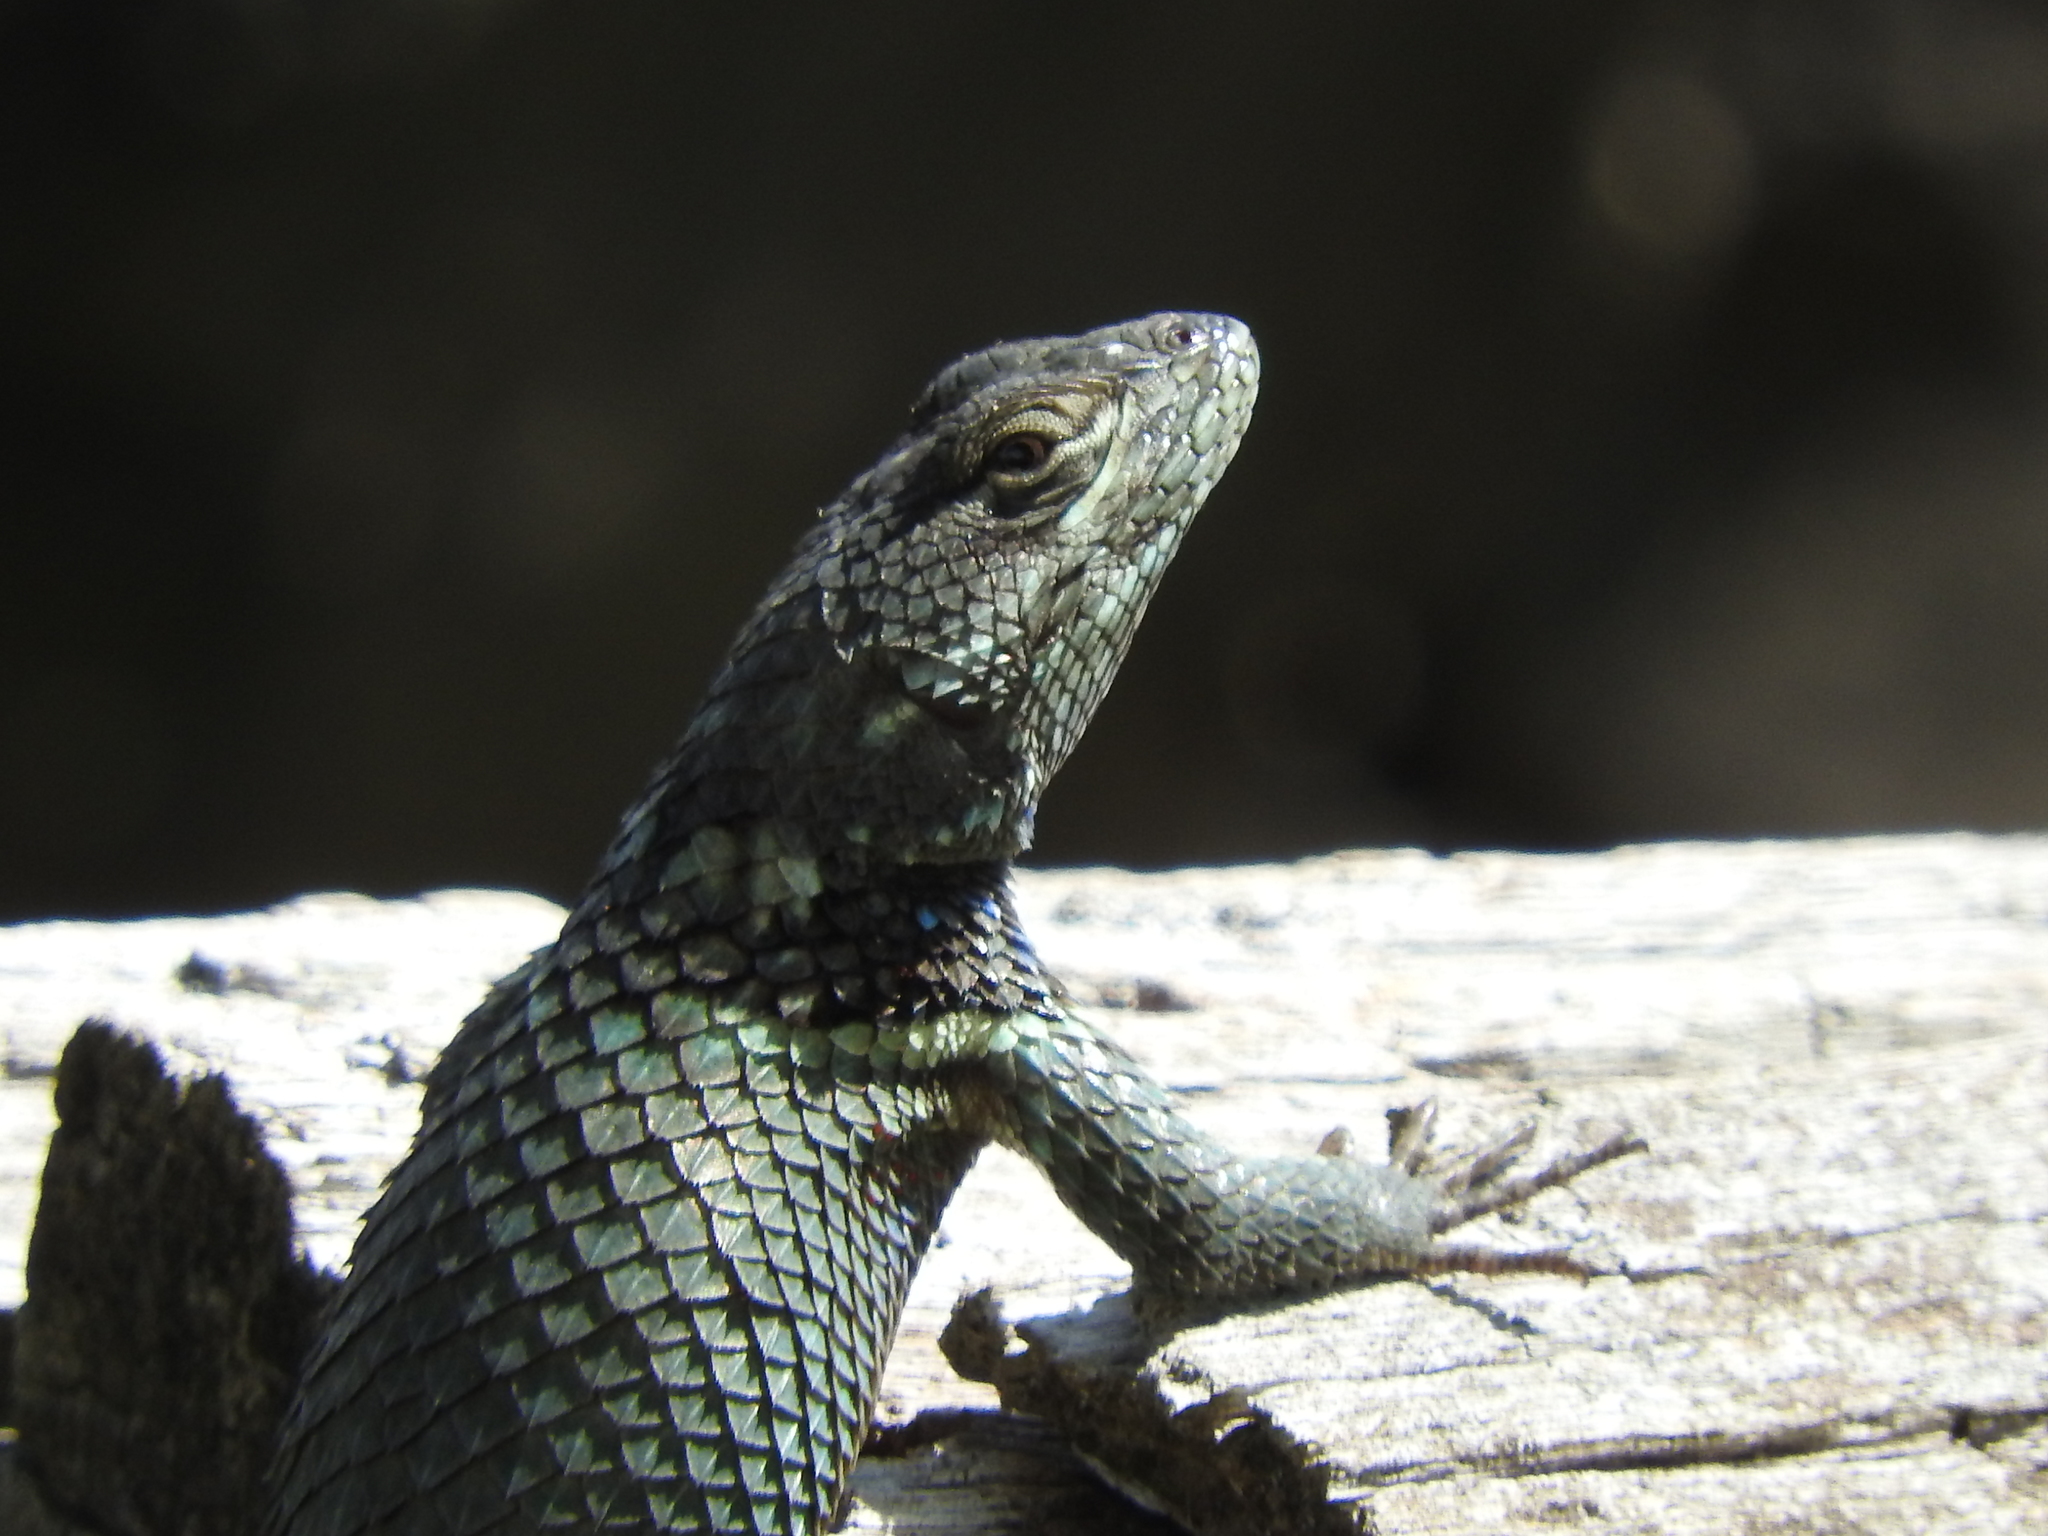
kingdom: Animalia
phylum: Chordata
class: Squamata
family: Phrynosomatidae
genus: Sceloporus
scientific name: Sceloporus torquatus
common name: Central plateau torquate lizard [melanogaster]
